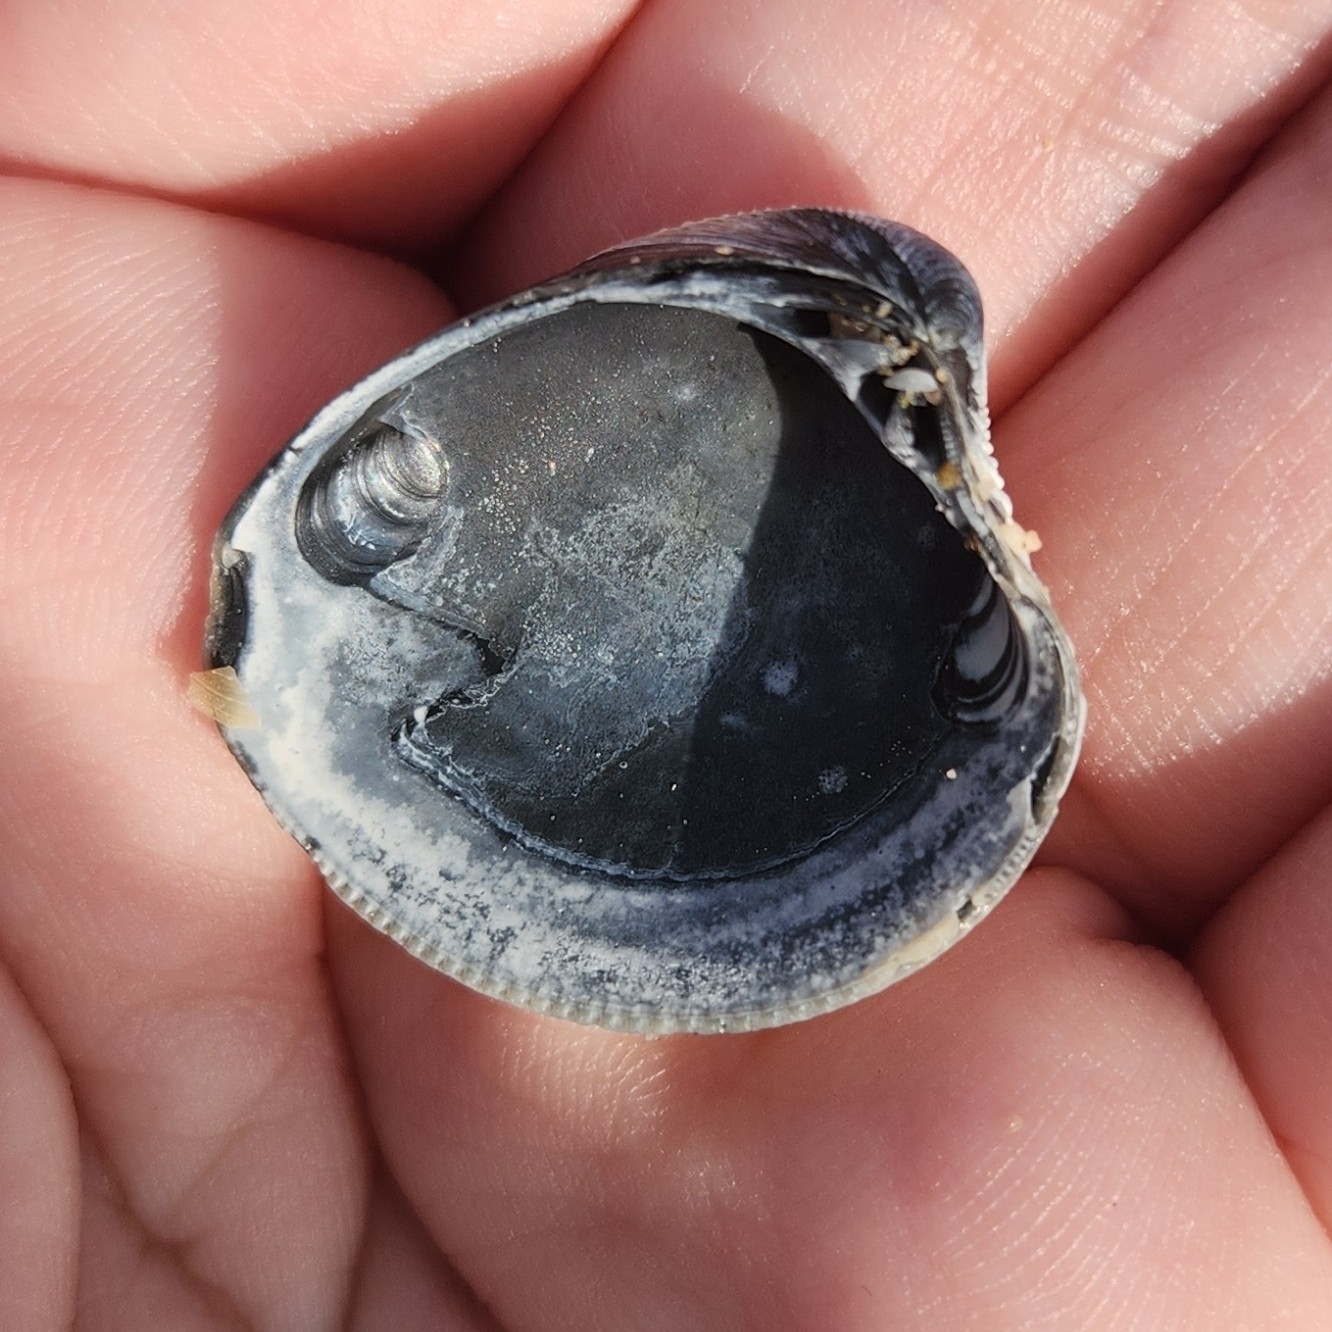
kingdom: Animalia
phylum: Mollusca
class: Bivalvia
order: Venerida
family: Veneridae
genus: Chamelea
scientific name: Chamelea gallina
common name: Chicken venus
